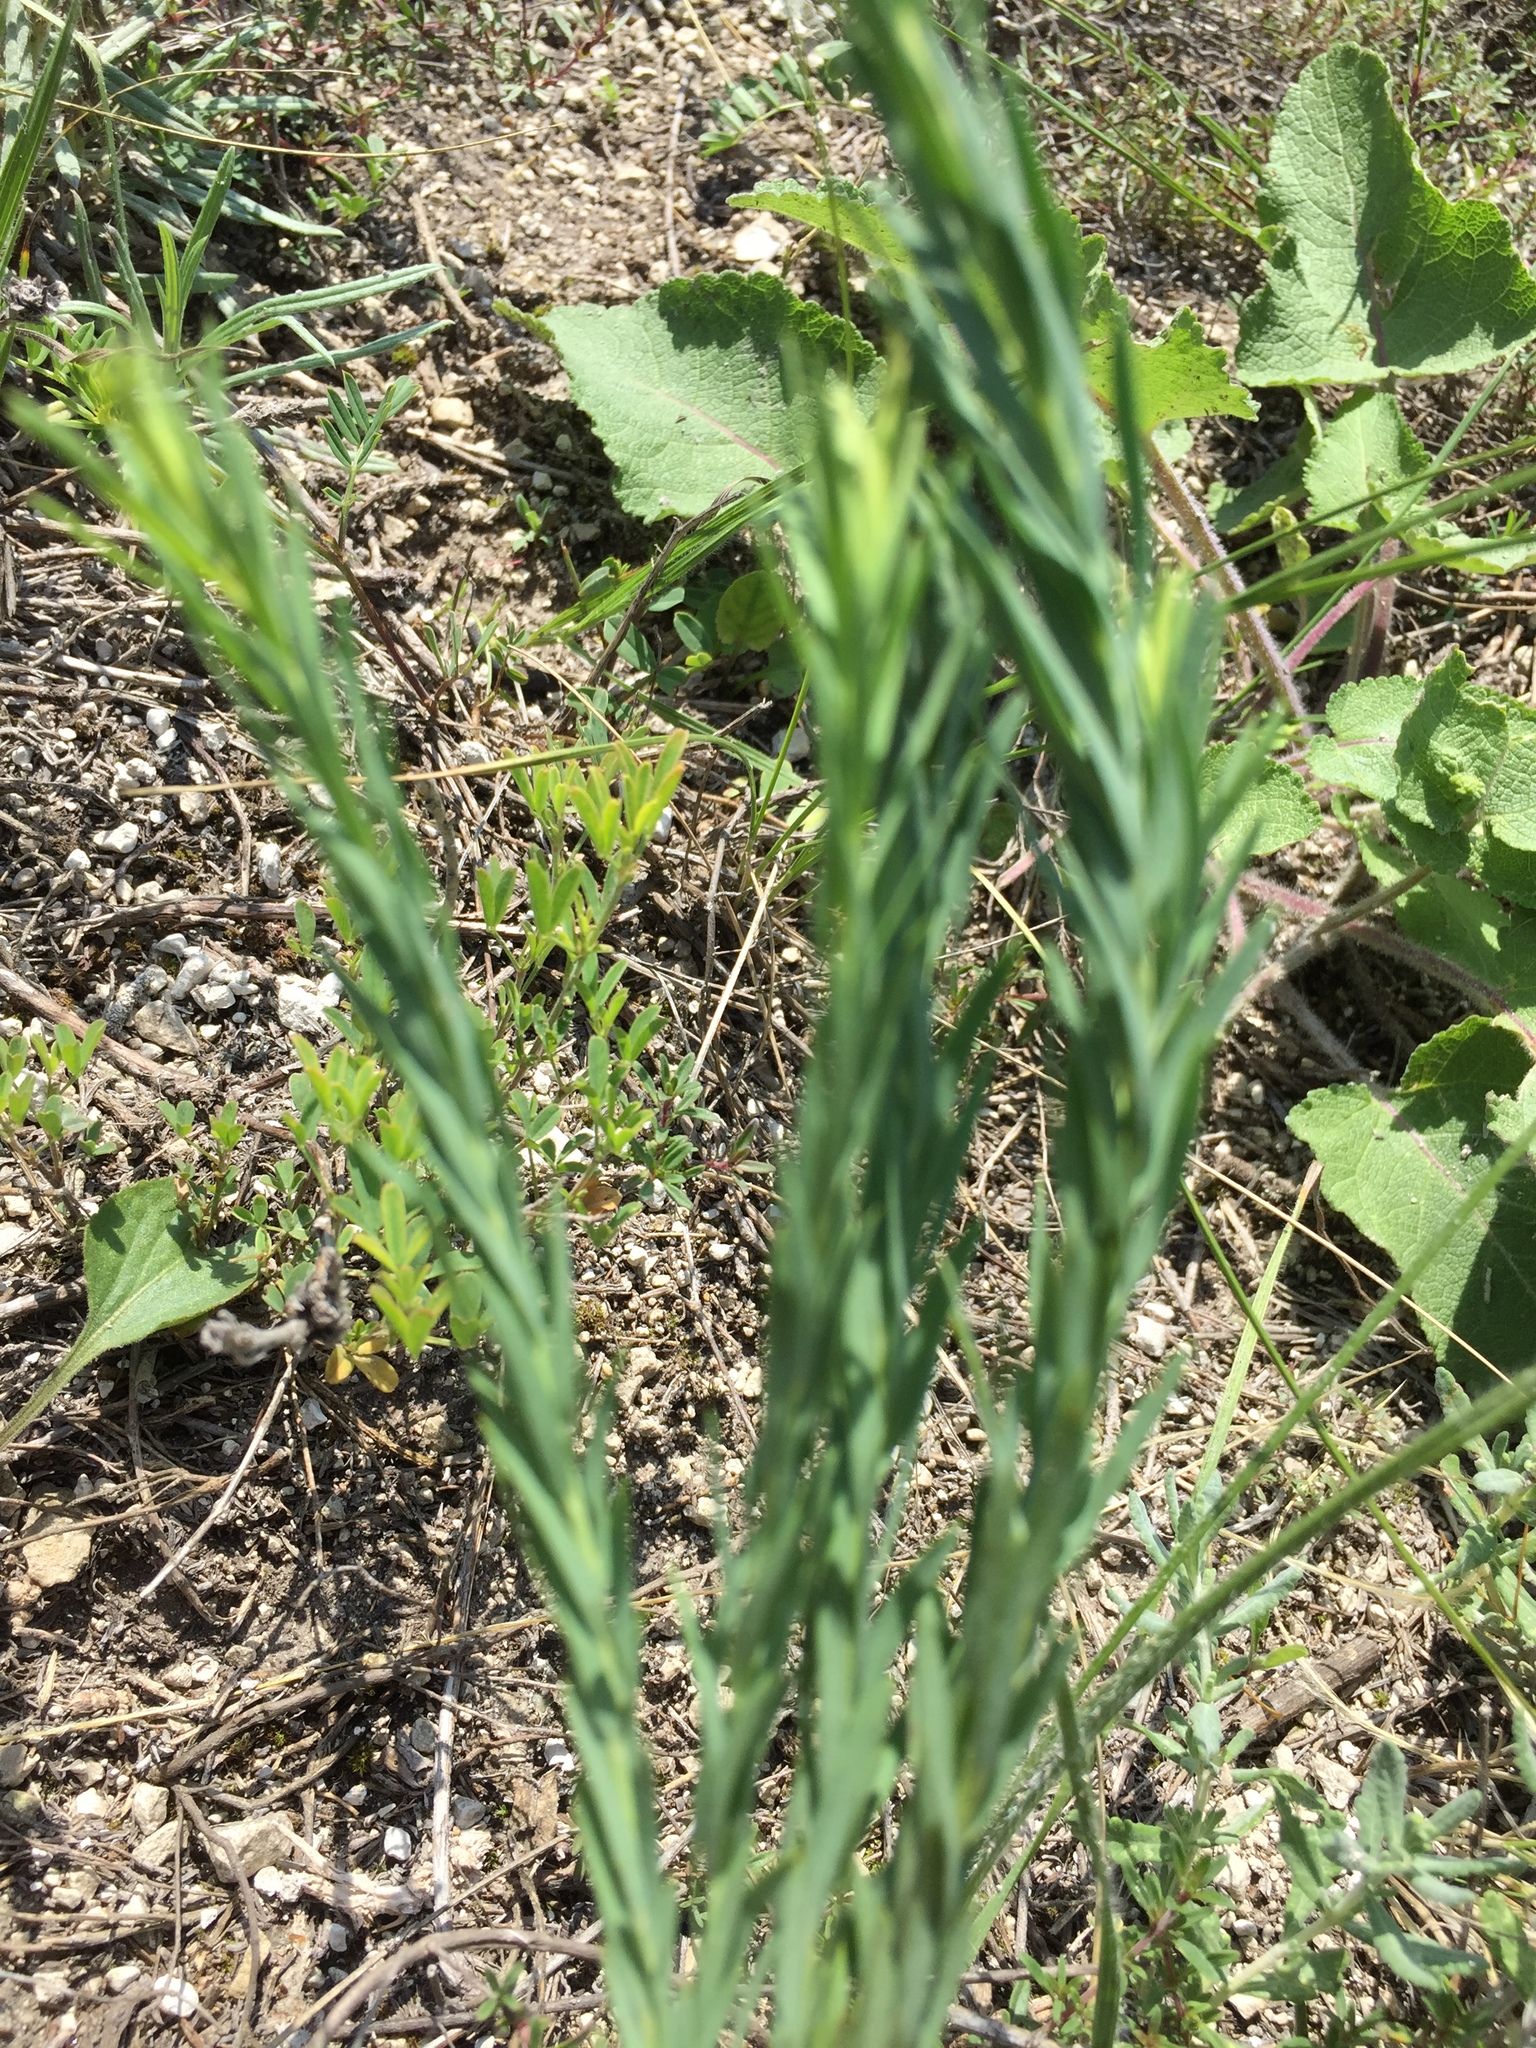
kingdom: Plantae
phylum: Tracheophyta
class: Magnoliopsida
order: Malpighiales
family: Euphorbiaceae
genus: Euphorbia
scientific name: Euphorbia seguieriana
